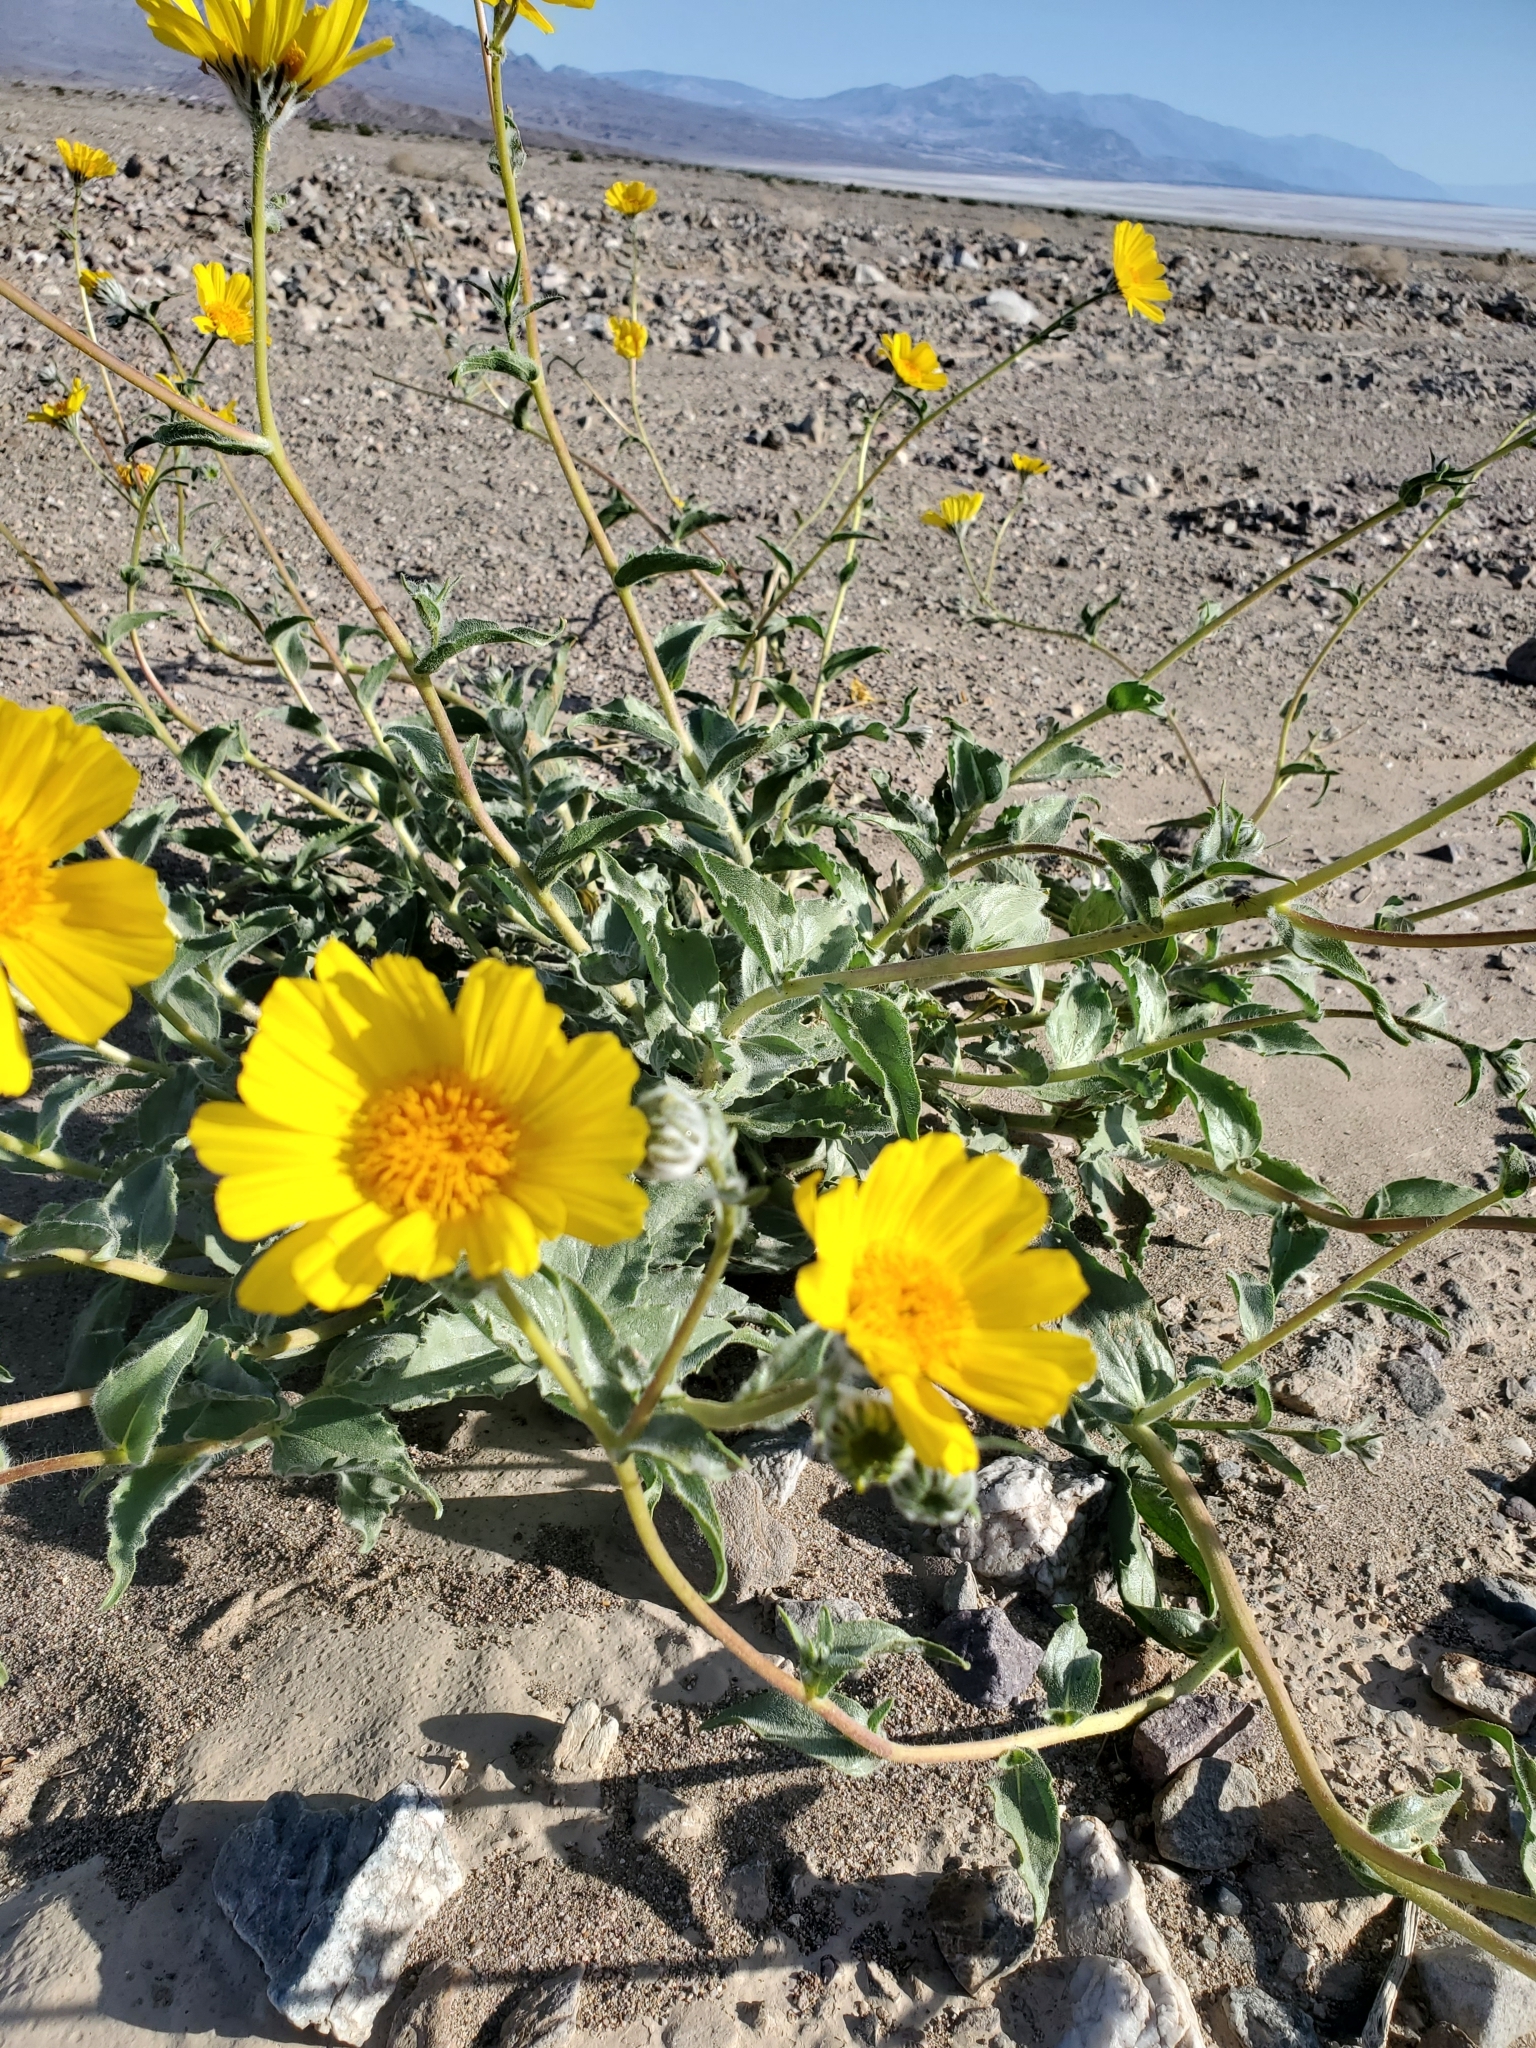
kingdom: Plantae
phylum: Tracheophyta
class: Magnoliopsida
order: Asterales
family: Asteraceae
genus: Geraea
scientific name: Geraea canescens
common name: Desert-gold
